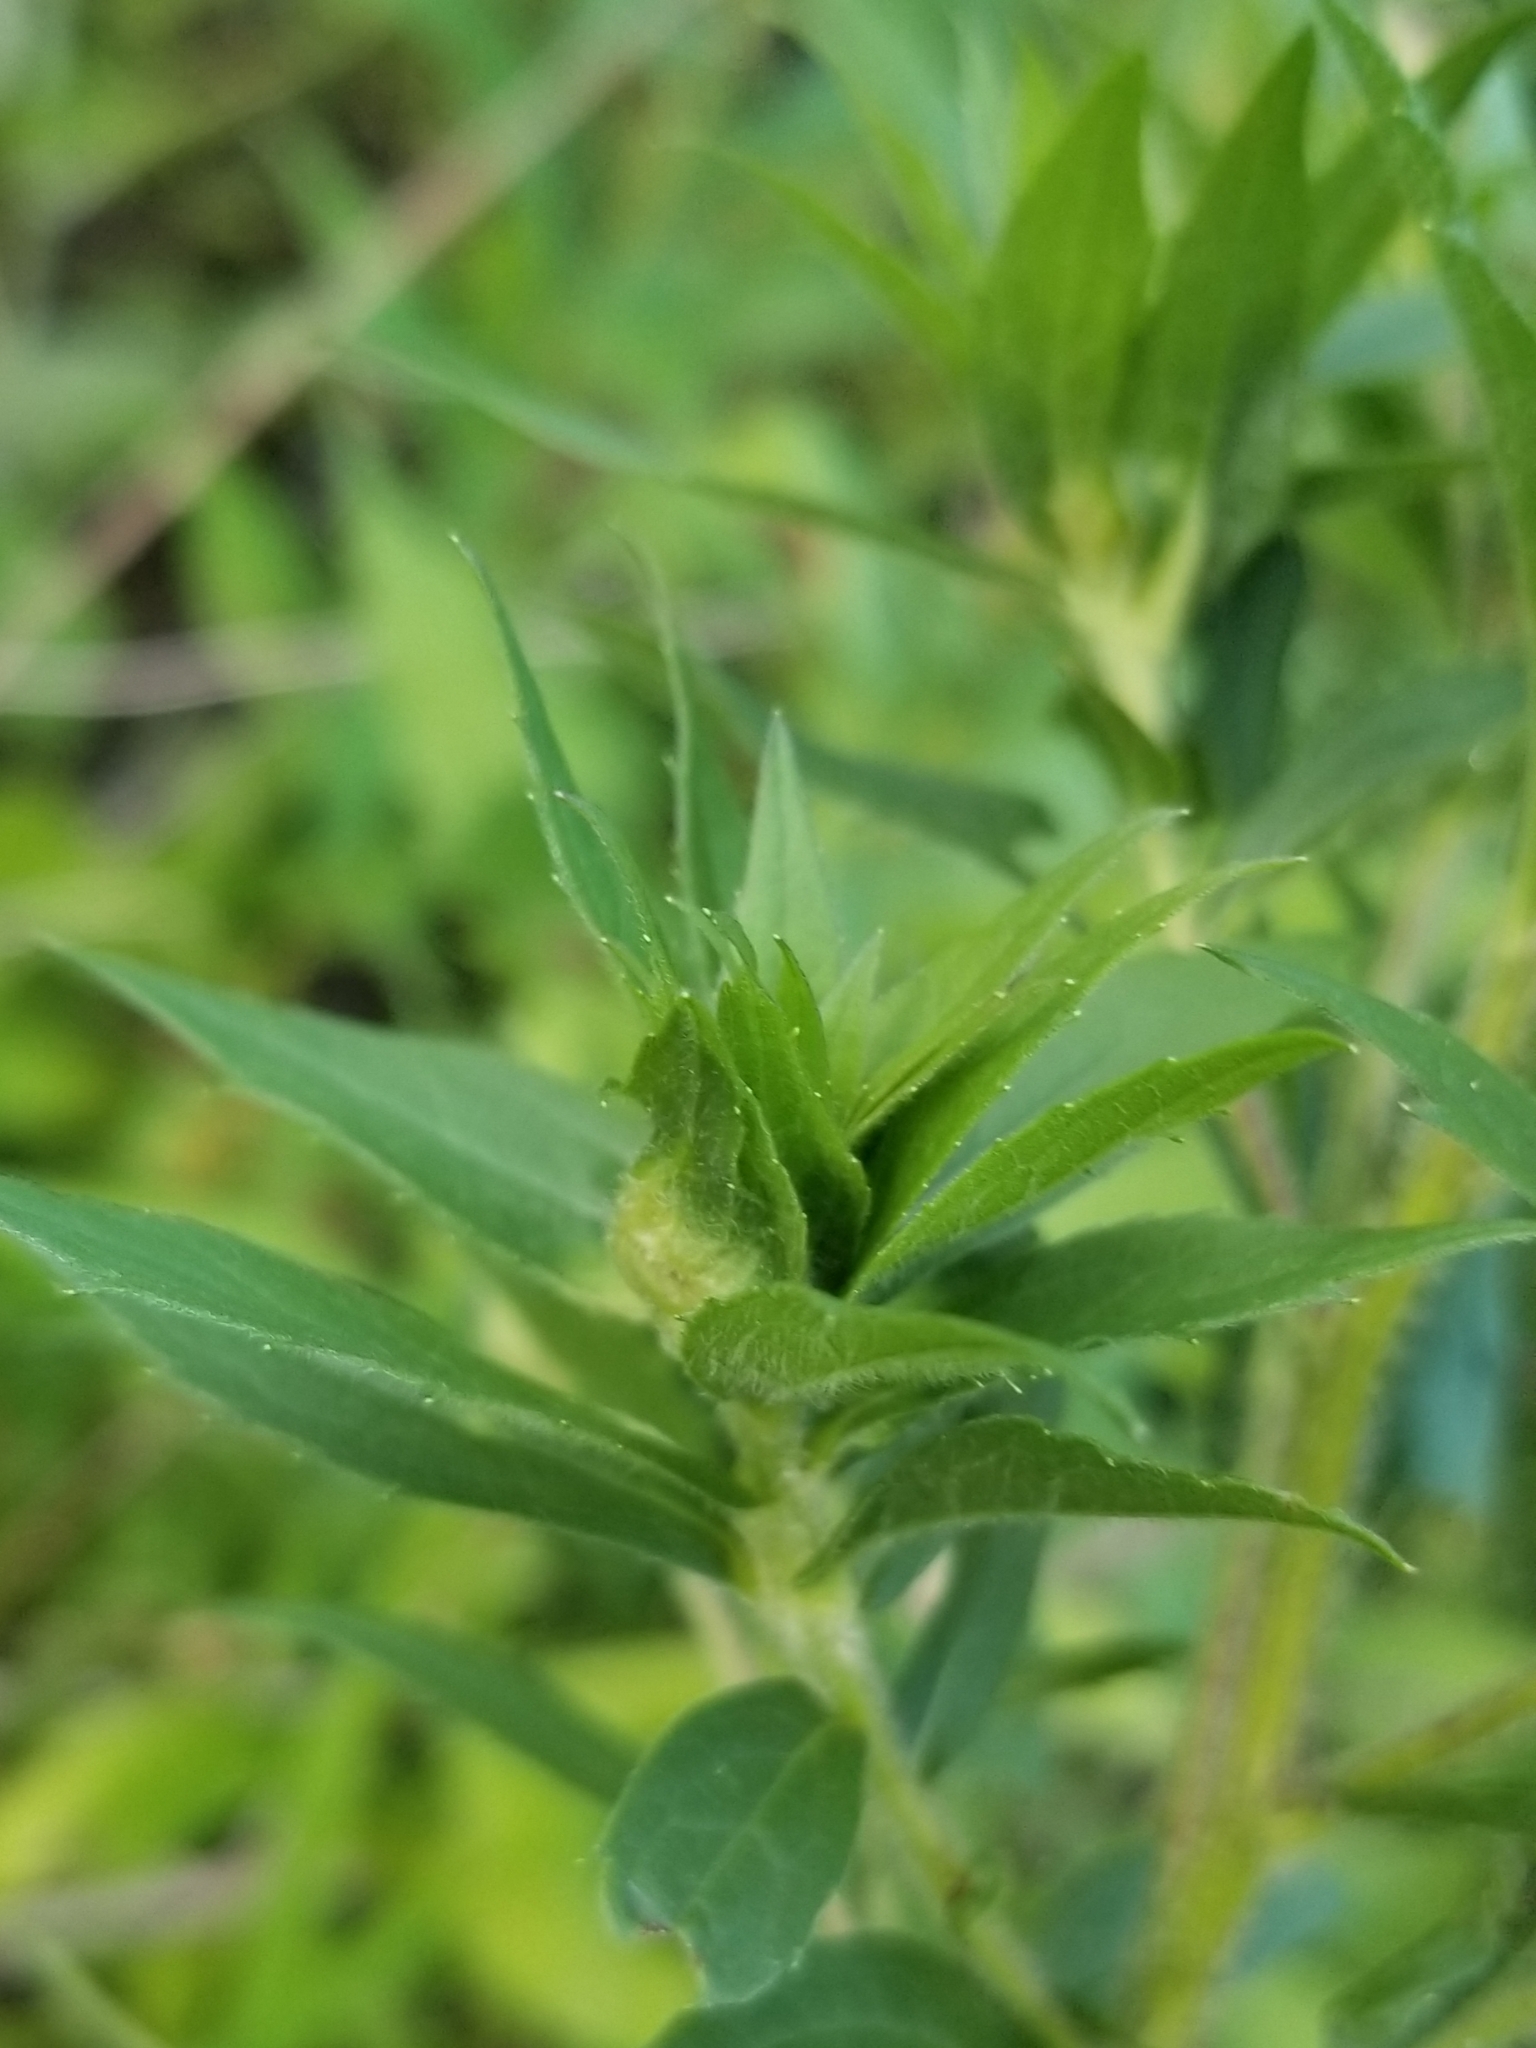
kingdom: Animalia
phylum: Arthropoda
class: Insecta
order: Diptera
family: Cecidomyiidae
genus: Dasineura
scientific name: Dasineura folliculi
